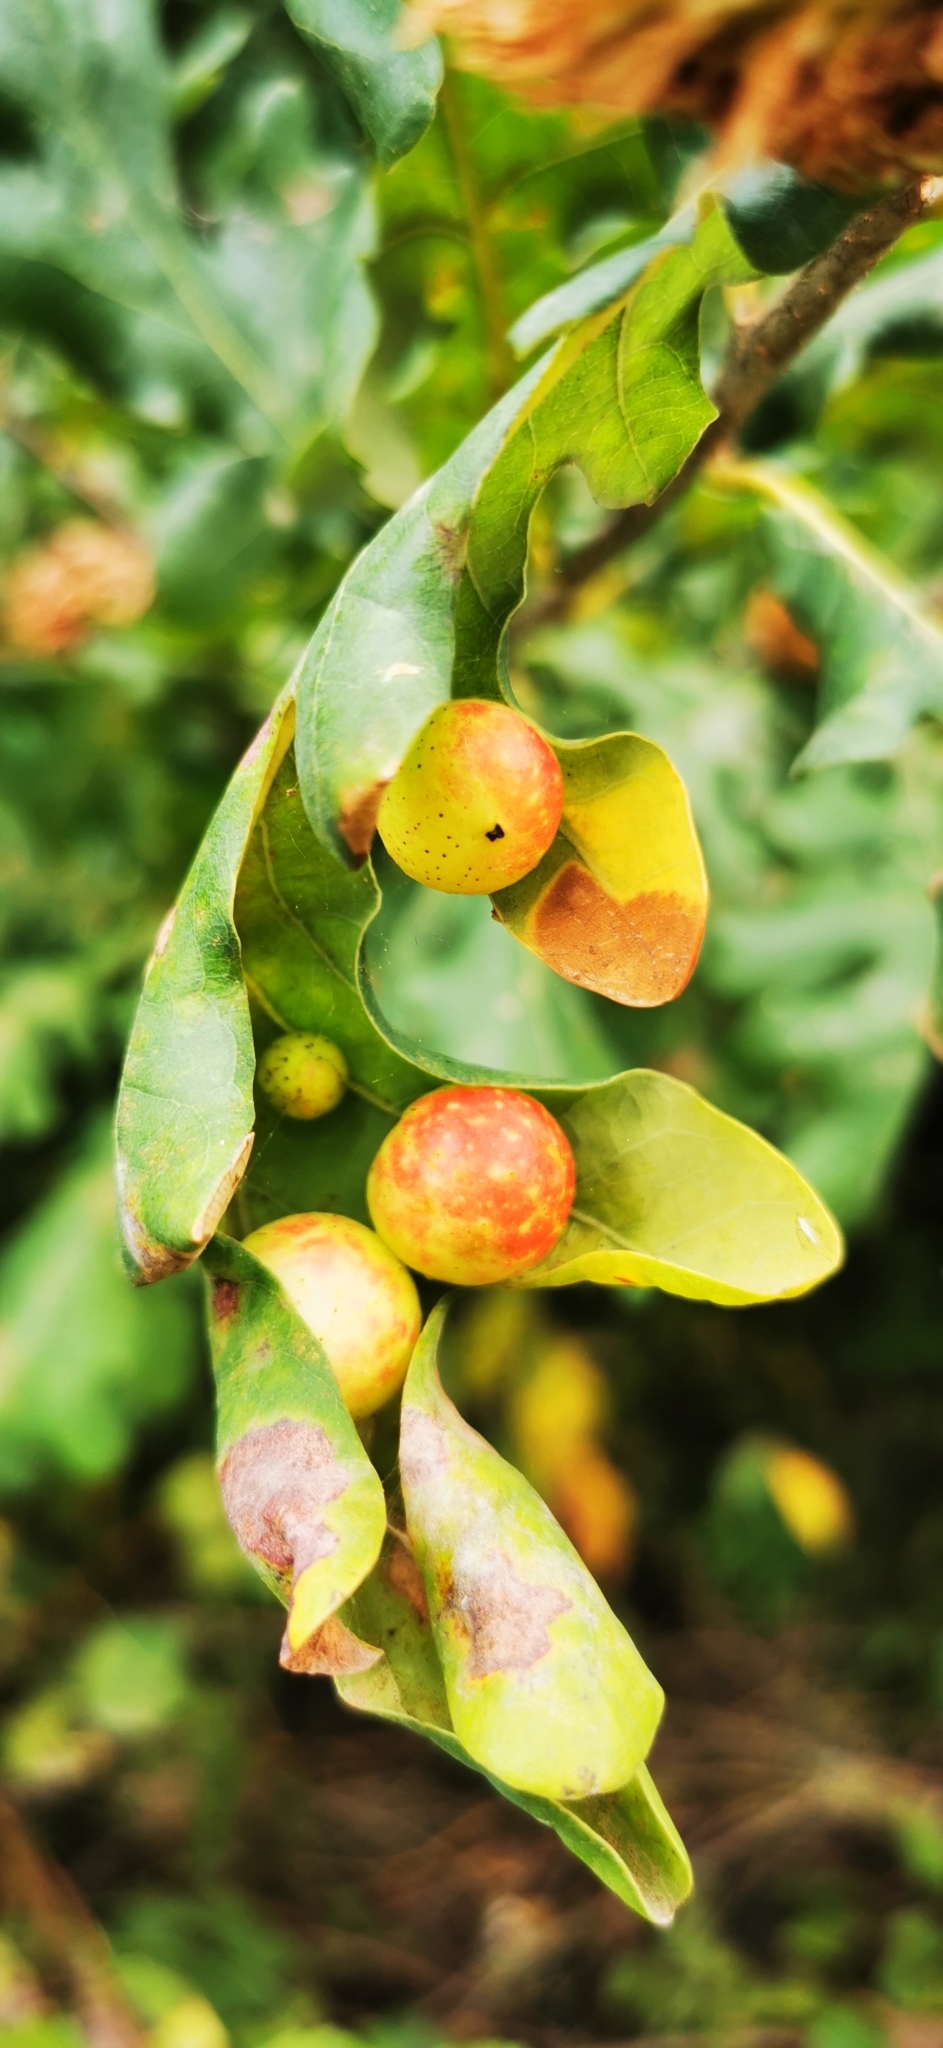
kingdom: Animalia
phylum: Arthropoda
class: Insecta
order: Hymenoptera
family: Cynipidae
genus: Cynips
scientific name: Cynips quercusfolii
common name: Cherry gall
